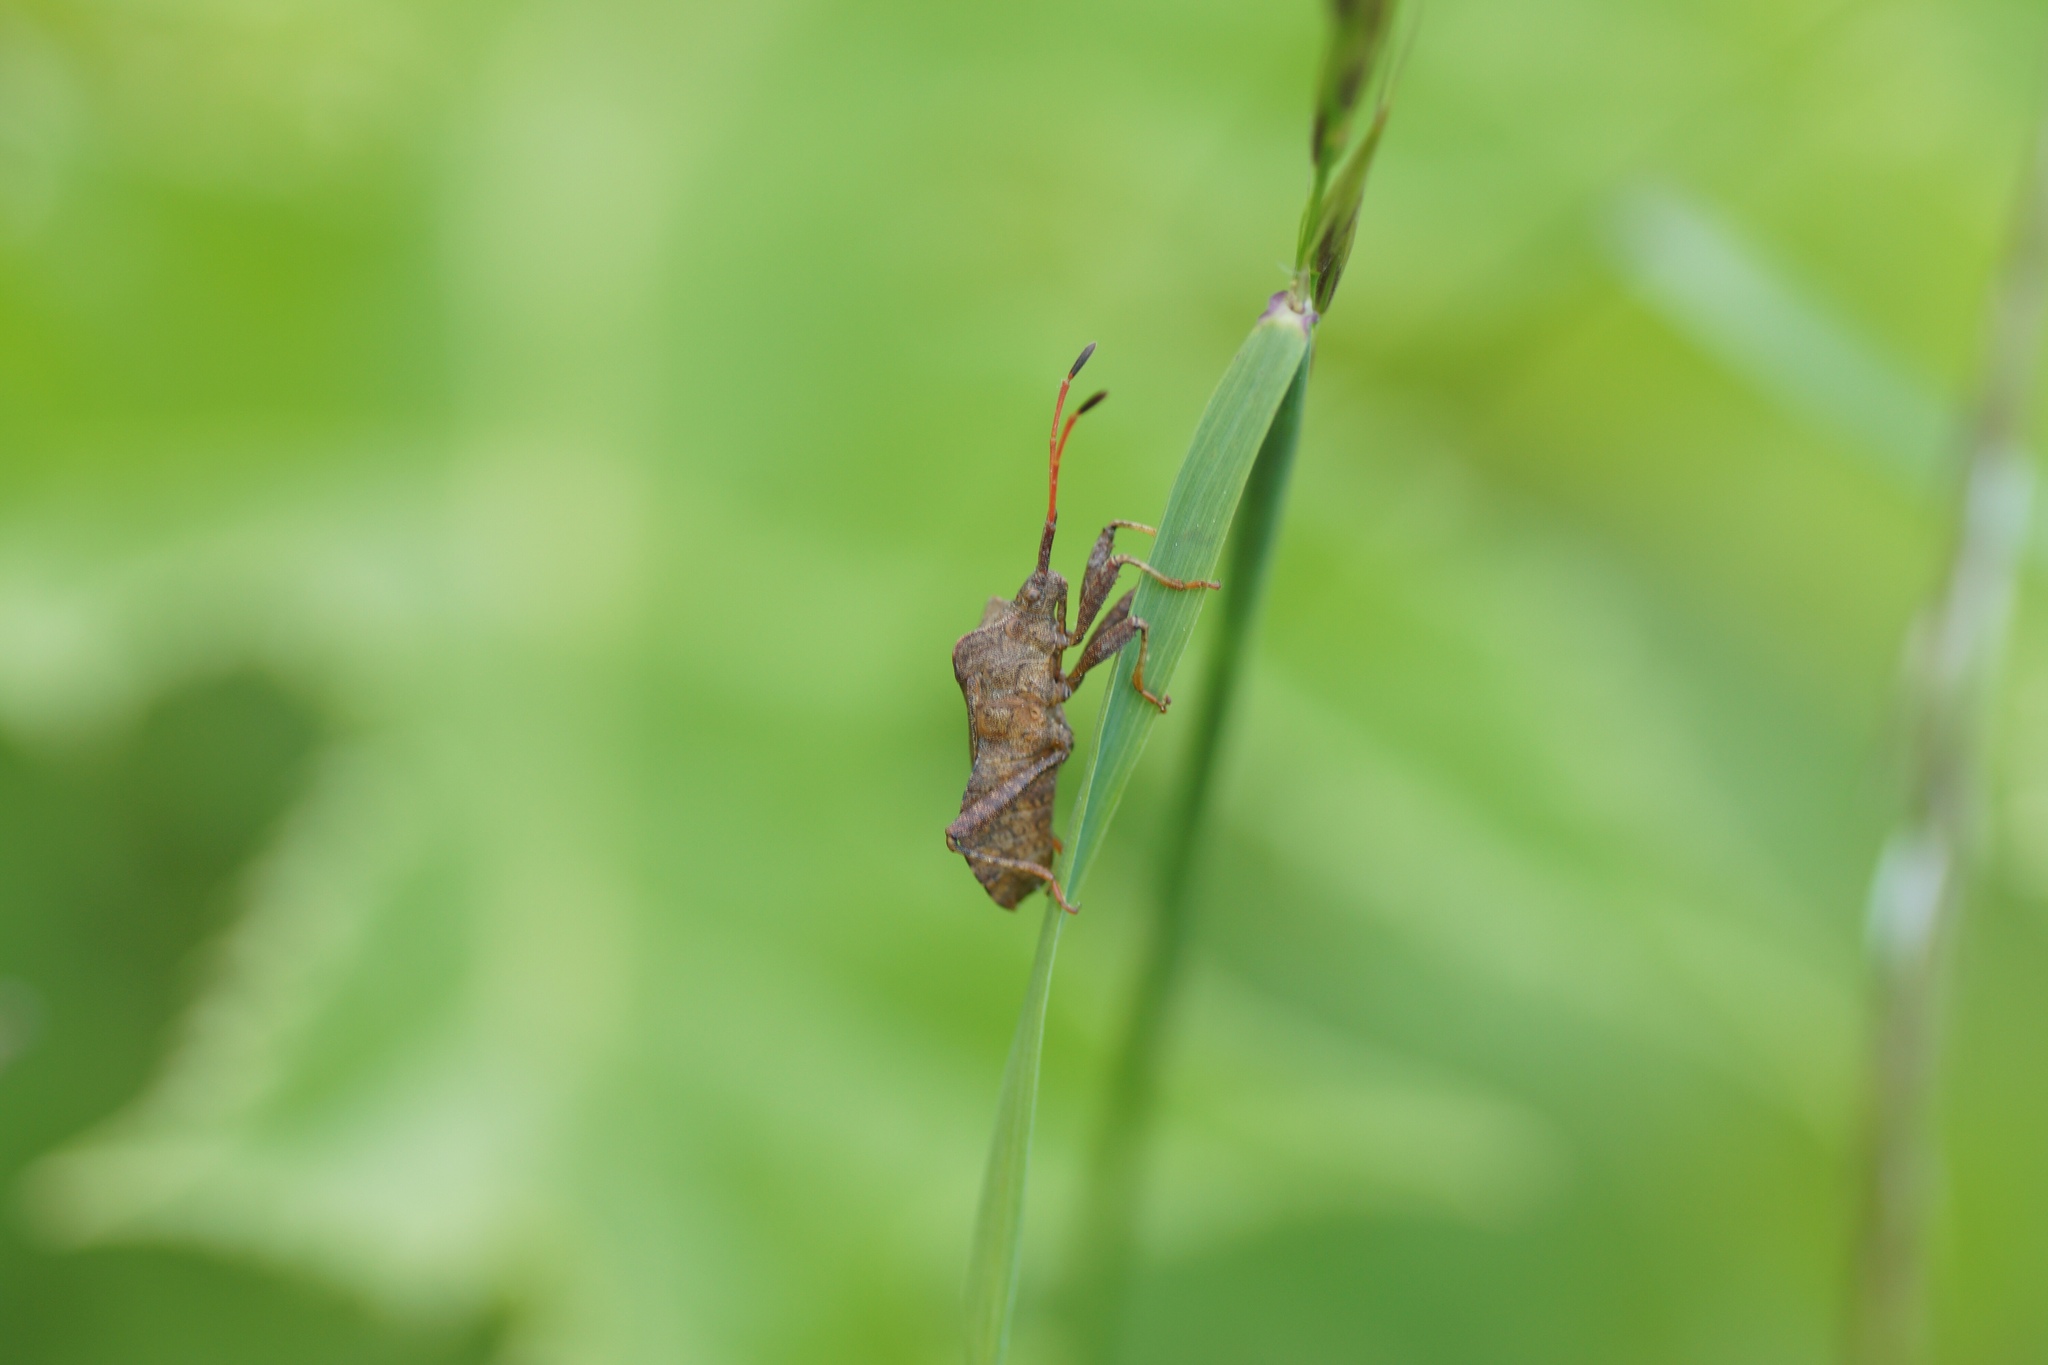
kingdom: Animalia
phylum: Arthropoda
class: Insecta
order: Hemiptera
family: Coreidae
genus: Coreus
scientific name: Coreus marginatus
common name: Dock bug
